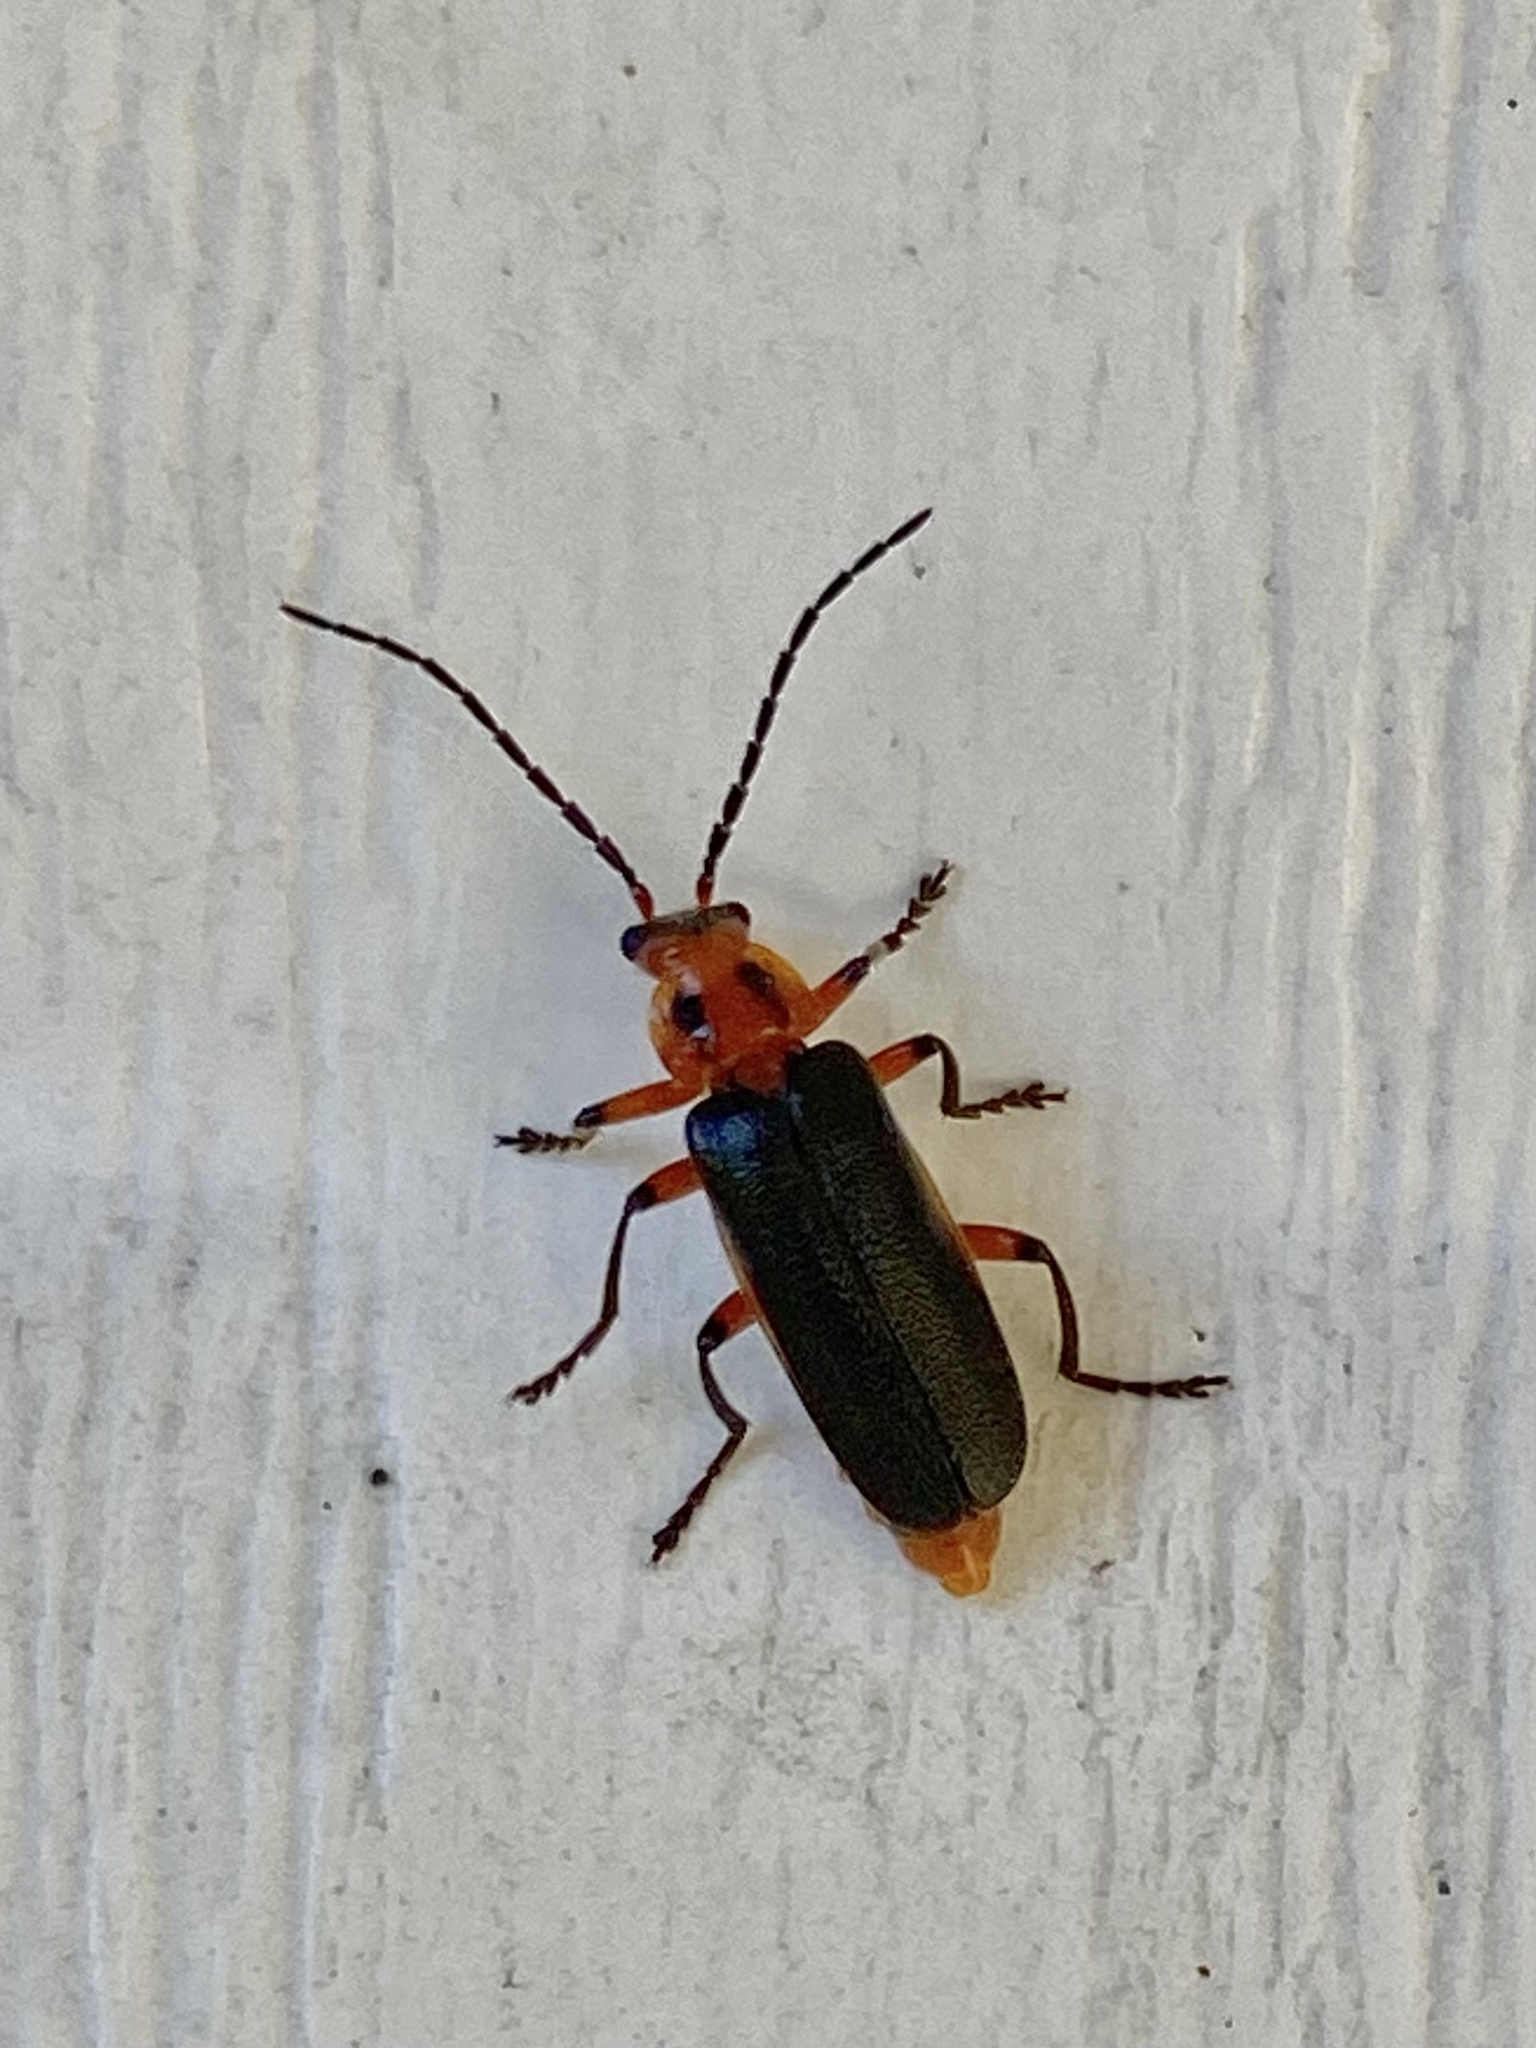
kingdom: Animalia
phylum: Arthropoda
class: Insecta
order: Coleoptera
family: Cantharidae
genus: Atalantycha
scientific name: Atalantycha bilineata
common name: Two-lined leatherwing
